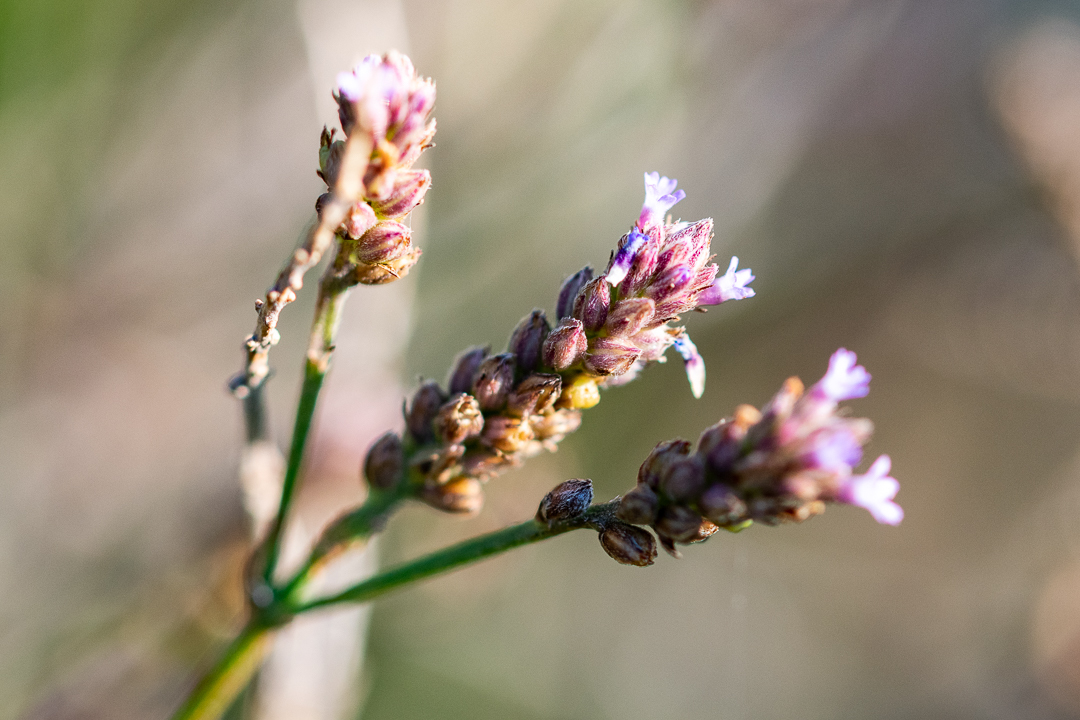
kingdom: Plantae
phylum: Tracheophyta
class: Magnoliopsida
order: Lamiales
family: Verbenaceae
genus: Verbena
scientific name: Verbena officinalis
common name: Vervain
